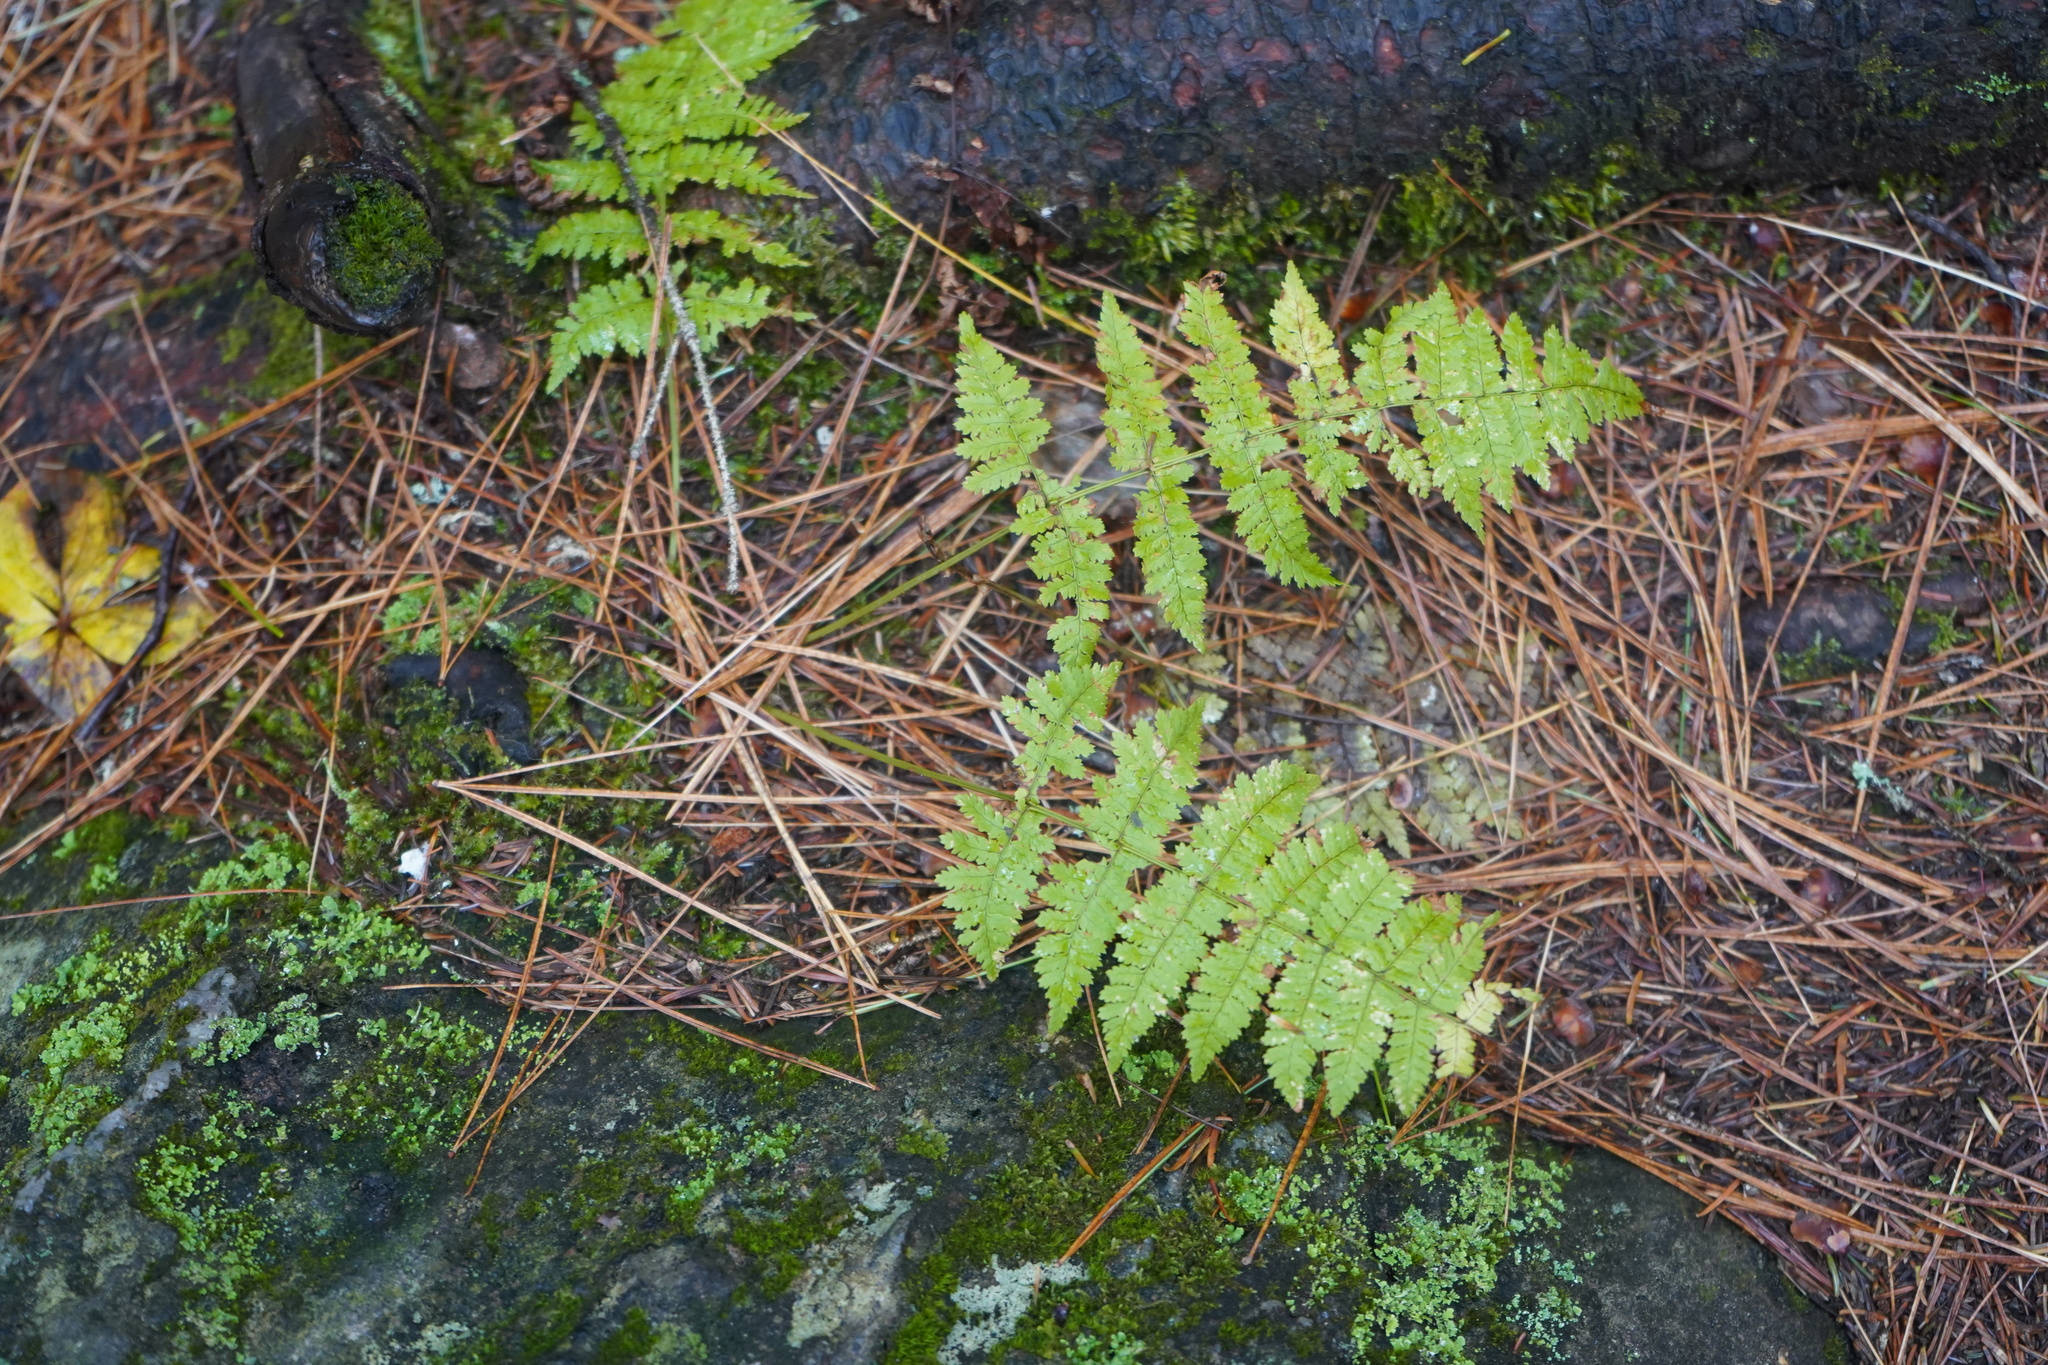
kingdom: Plantae
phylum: Tracheophyta
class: Polypodiopsida
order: Polypodiales
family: Dryopteridaceae
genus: Dryopteris
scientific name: Dryopteris intermedia
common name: Evergreen wood fern
